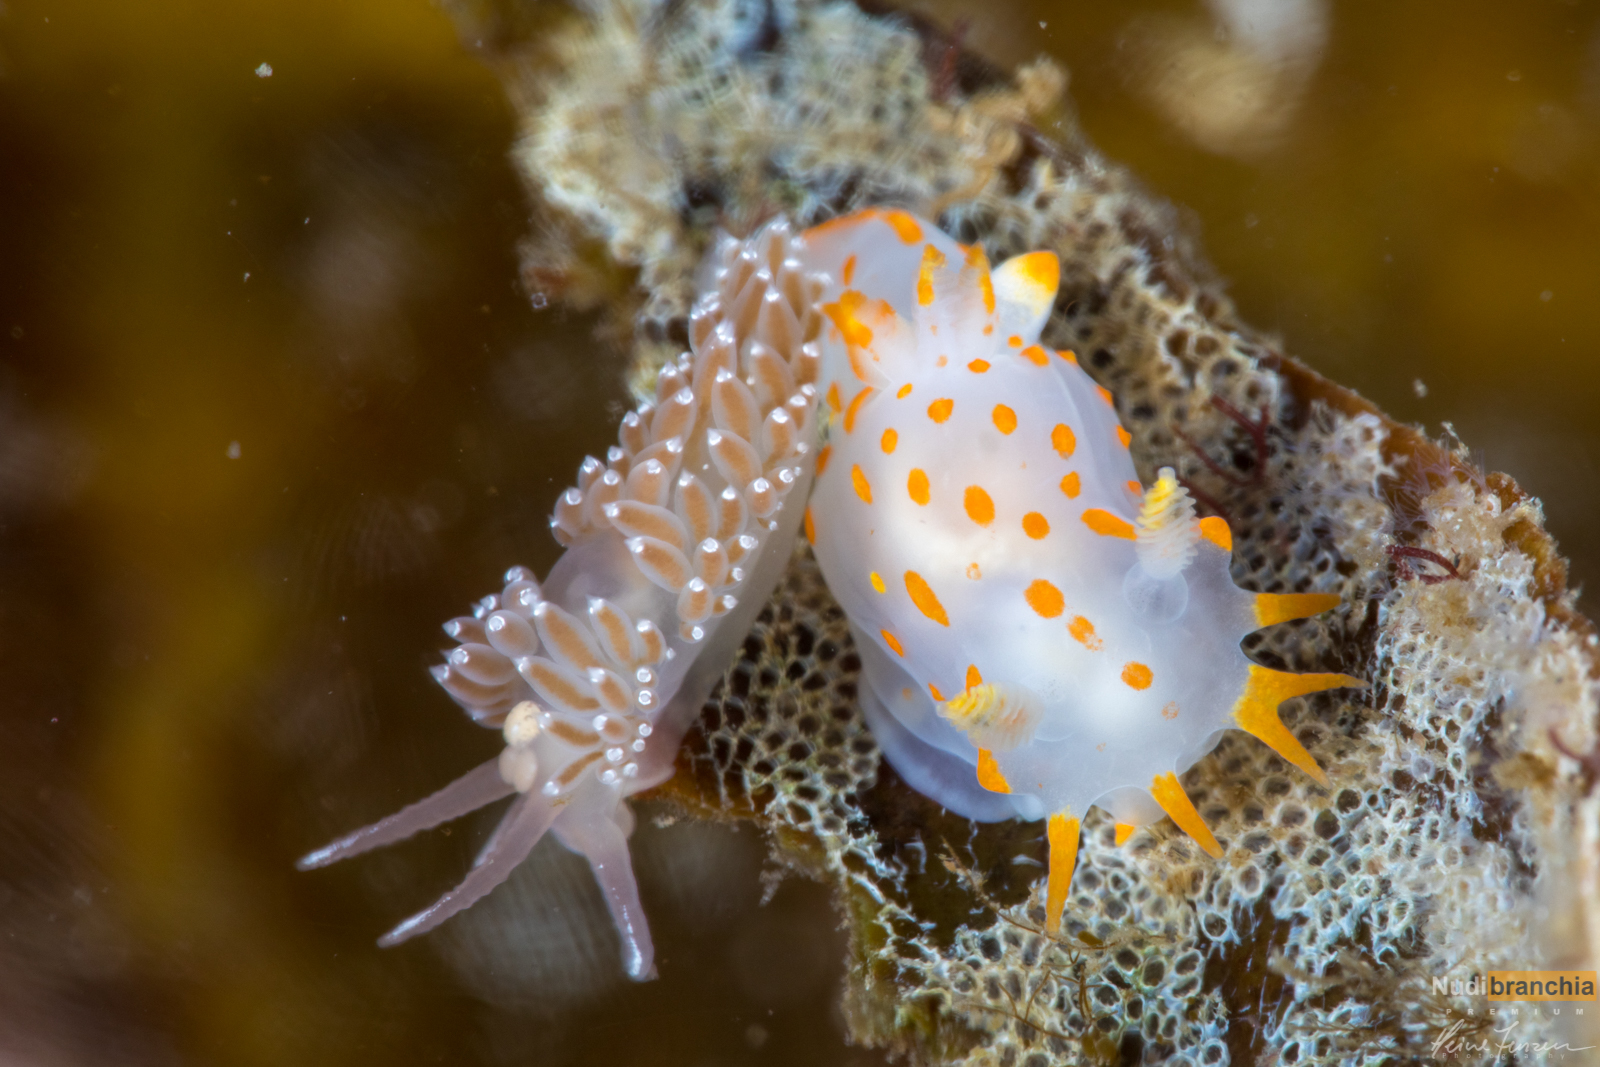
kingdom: Animalia
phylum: Mollusca
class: Gastropoda
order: Nudibranchia
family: Polyceridae
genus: Polycera
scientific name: Polycera quadrilineata
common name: Four-striped polycera
